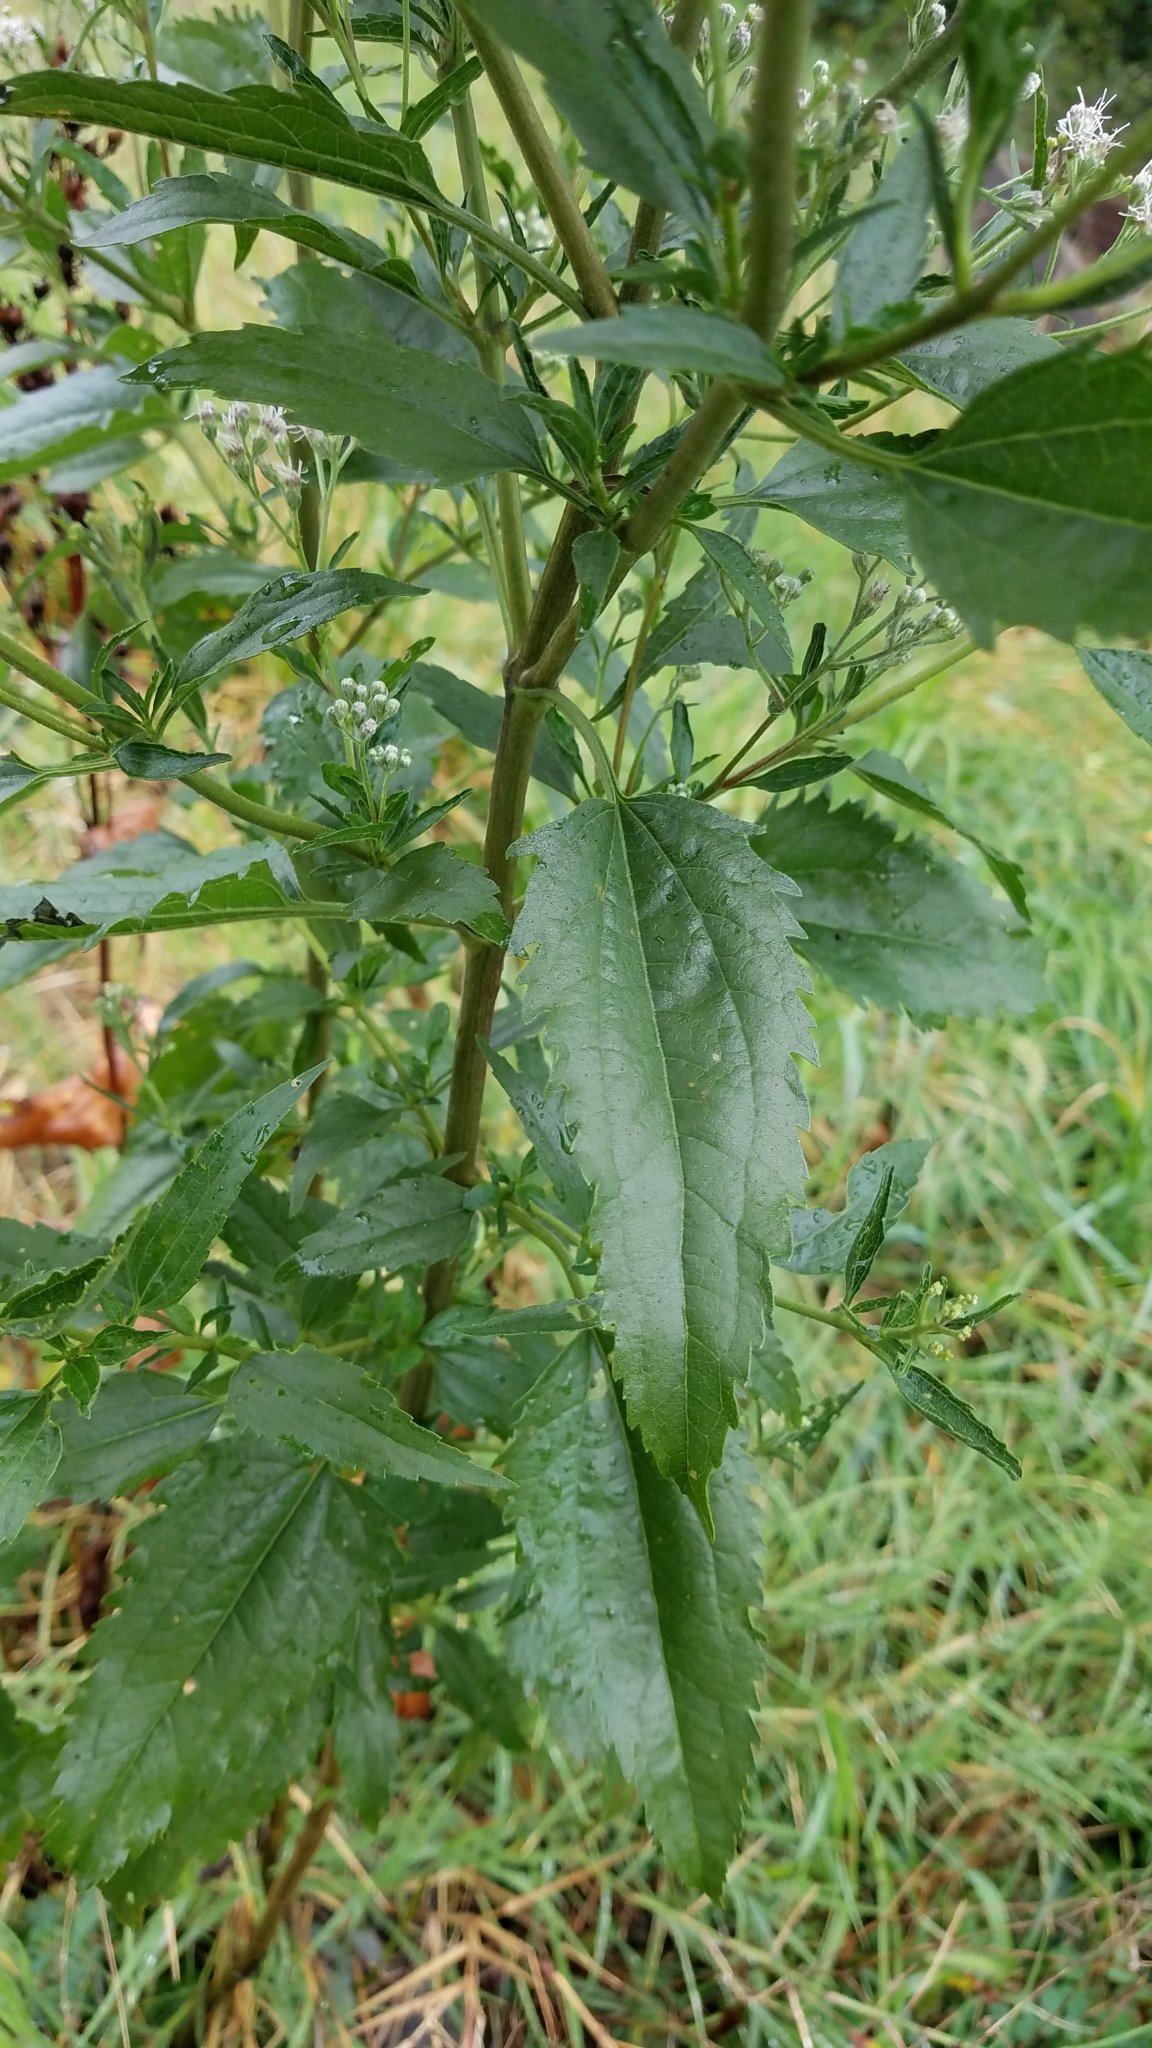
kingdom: Plantae
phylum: Tracheophyta
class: Magnoliopsida
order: Asterales
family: Asteraceae
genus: Eupatorium
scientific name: Eupatorium serotinum
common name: Late boneset
